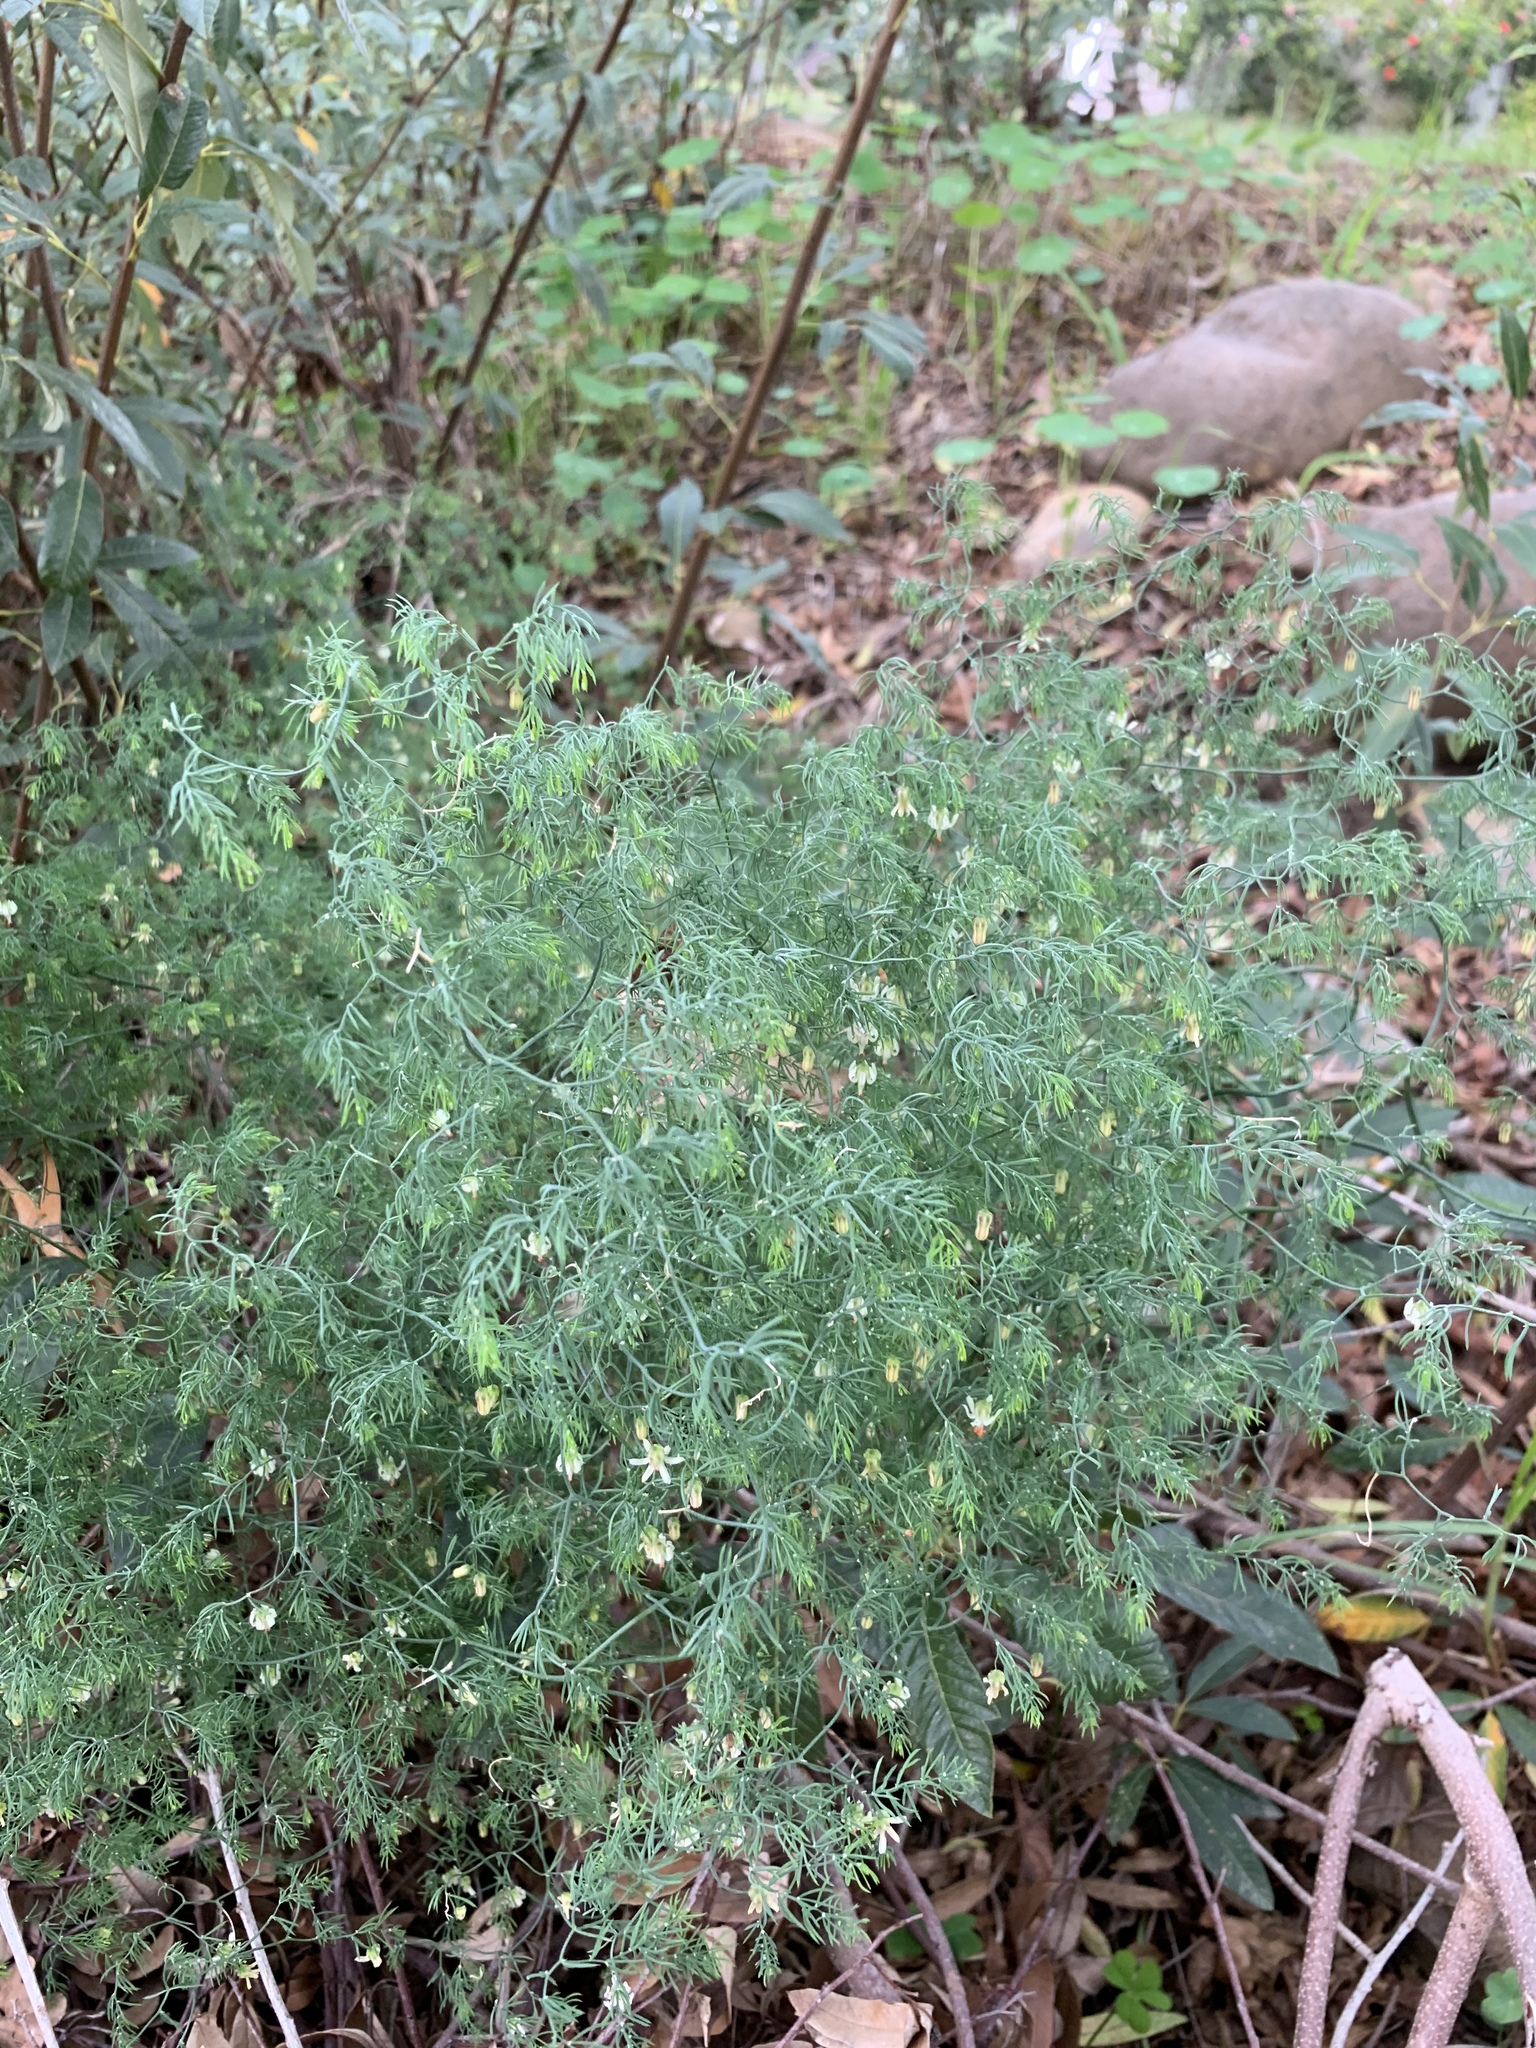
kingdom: Plantae
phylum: Tracheophyta
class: Liliopsida
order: Asparagales
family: Asparagaceae
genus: Asparagus
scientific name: Asparagus declinatus
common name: Bridal-creeper
